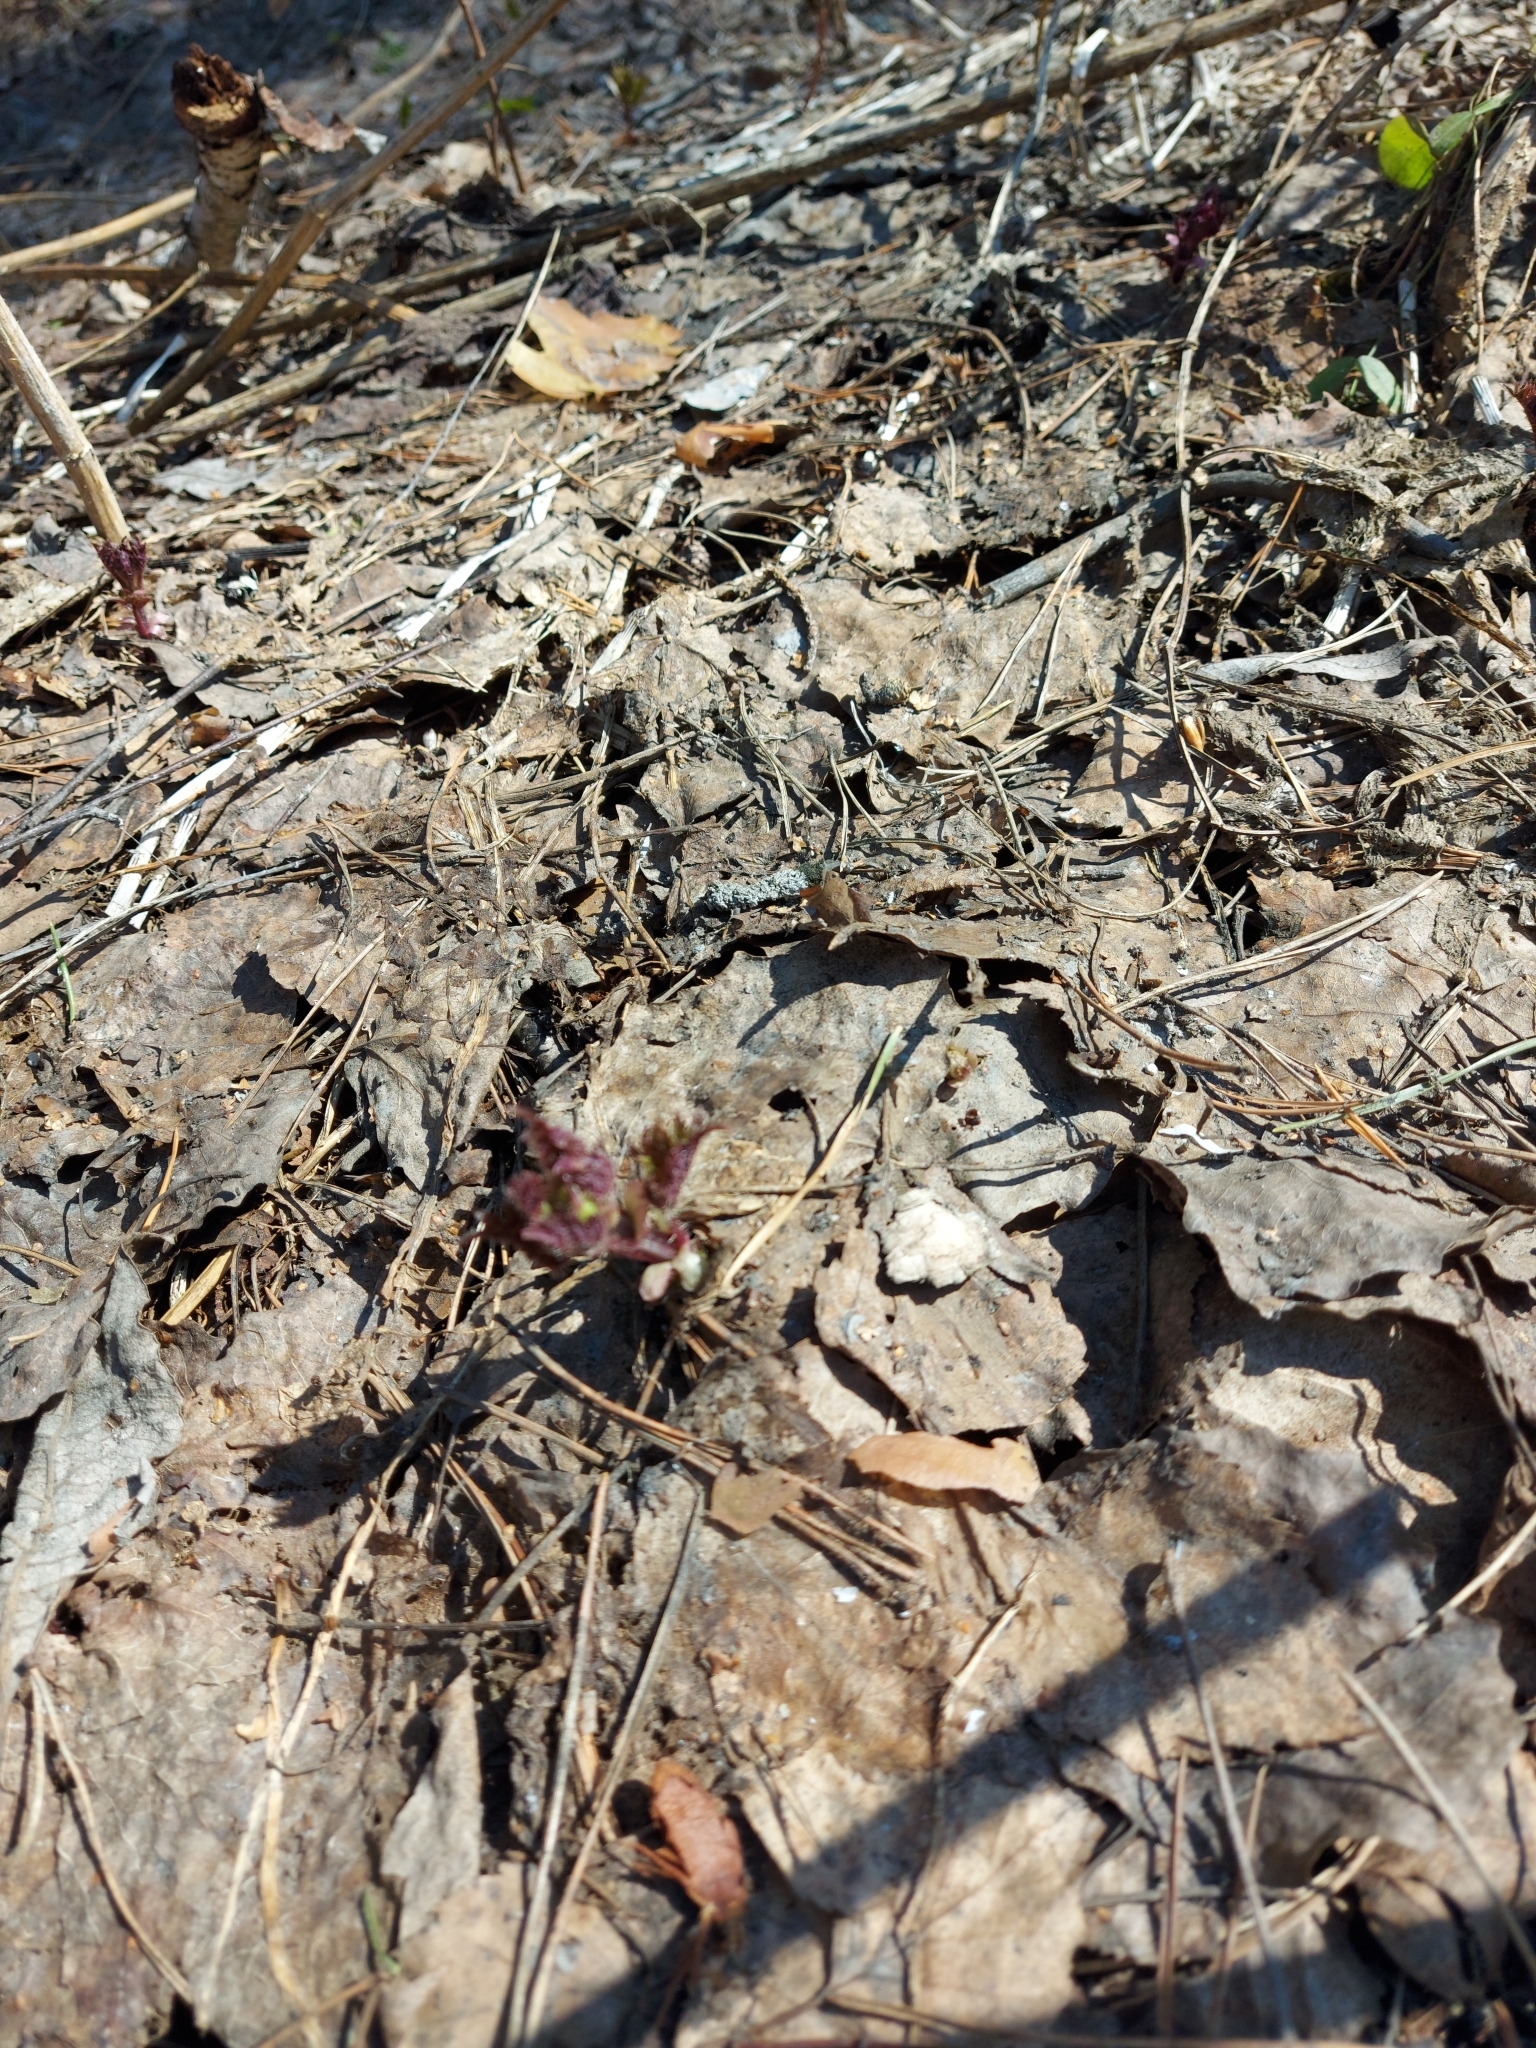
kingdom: Plantae
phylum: Tracheophyta
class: Magnoliopsida
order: Rosales
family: Urticaceae
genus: Urtica
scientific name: Urtica dioica
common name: Common nettle
